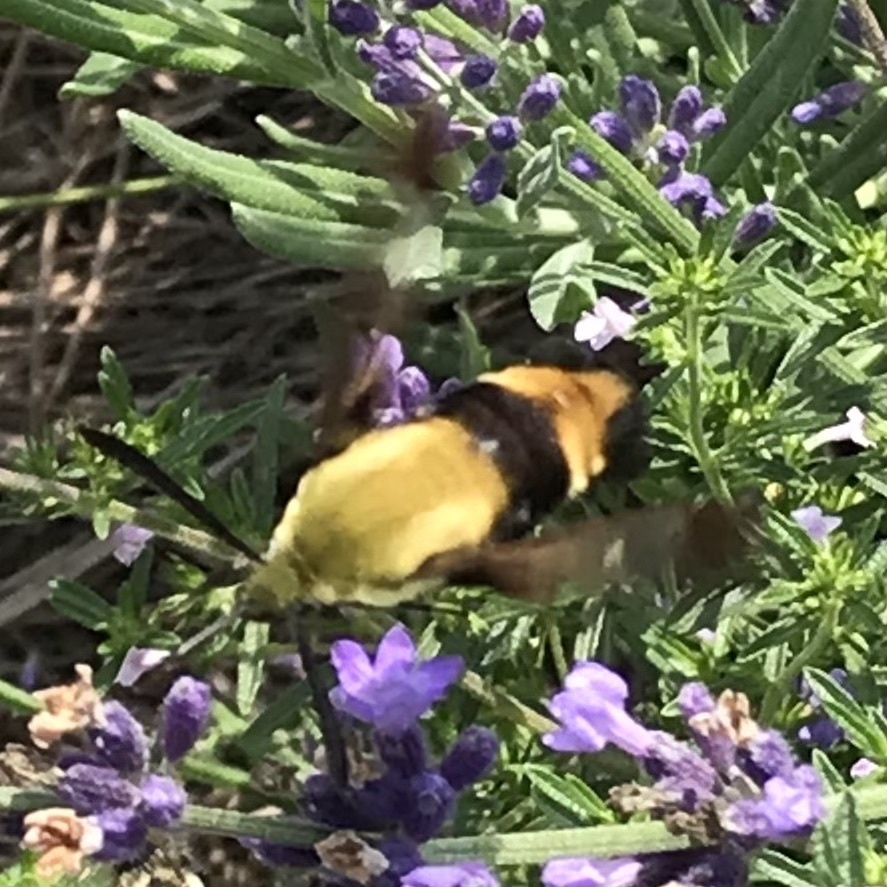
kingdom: Animalia
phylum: Arthropoda
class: Insecta
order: Lepidoptera
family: Sphingidae
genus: Hemaris
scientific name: Hemaris diffinis
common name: Bumblebee moth
